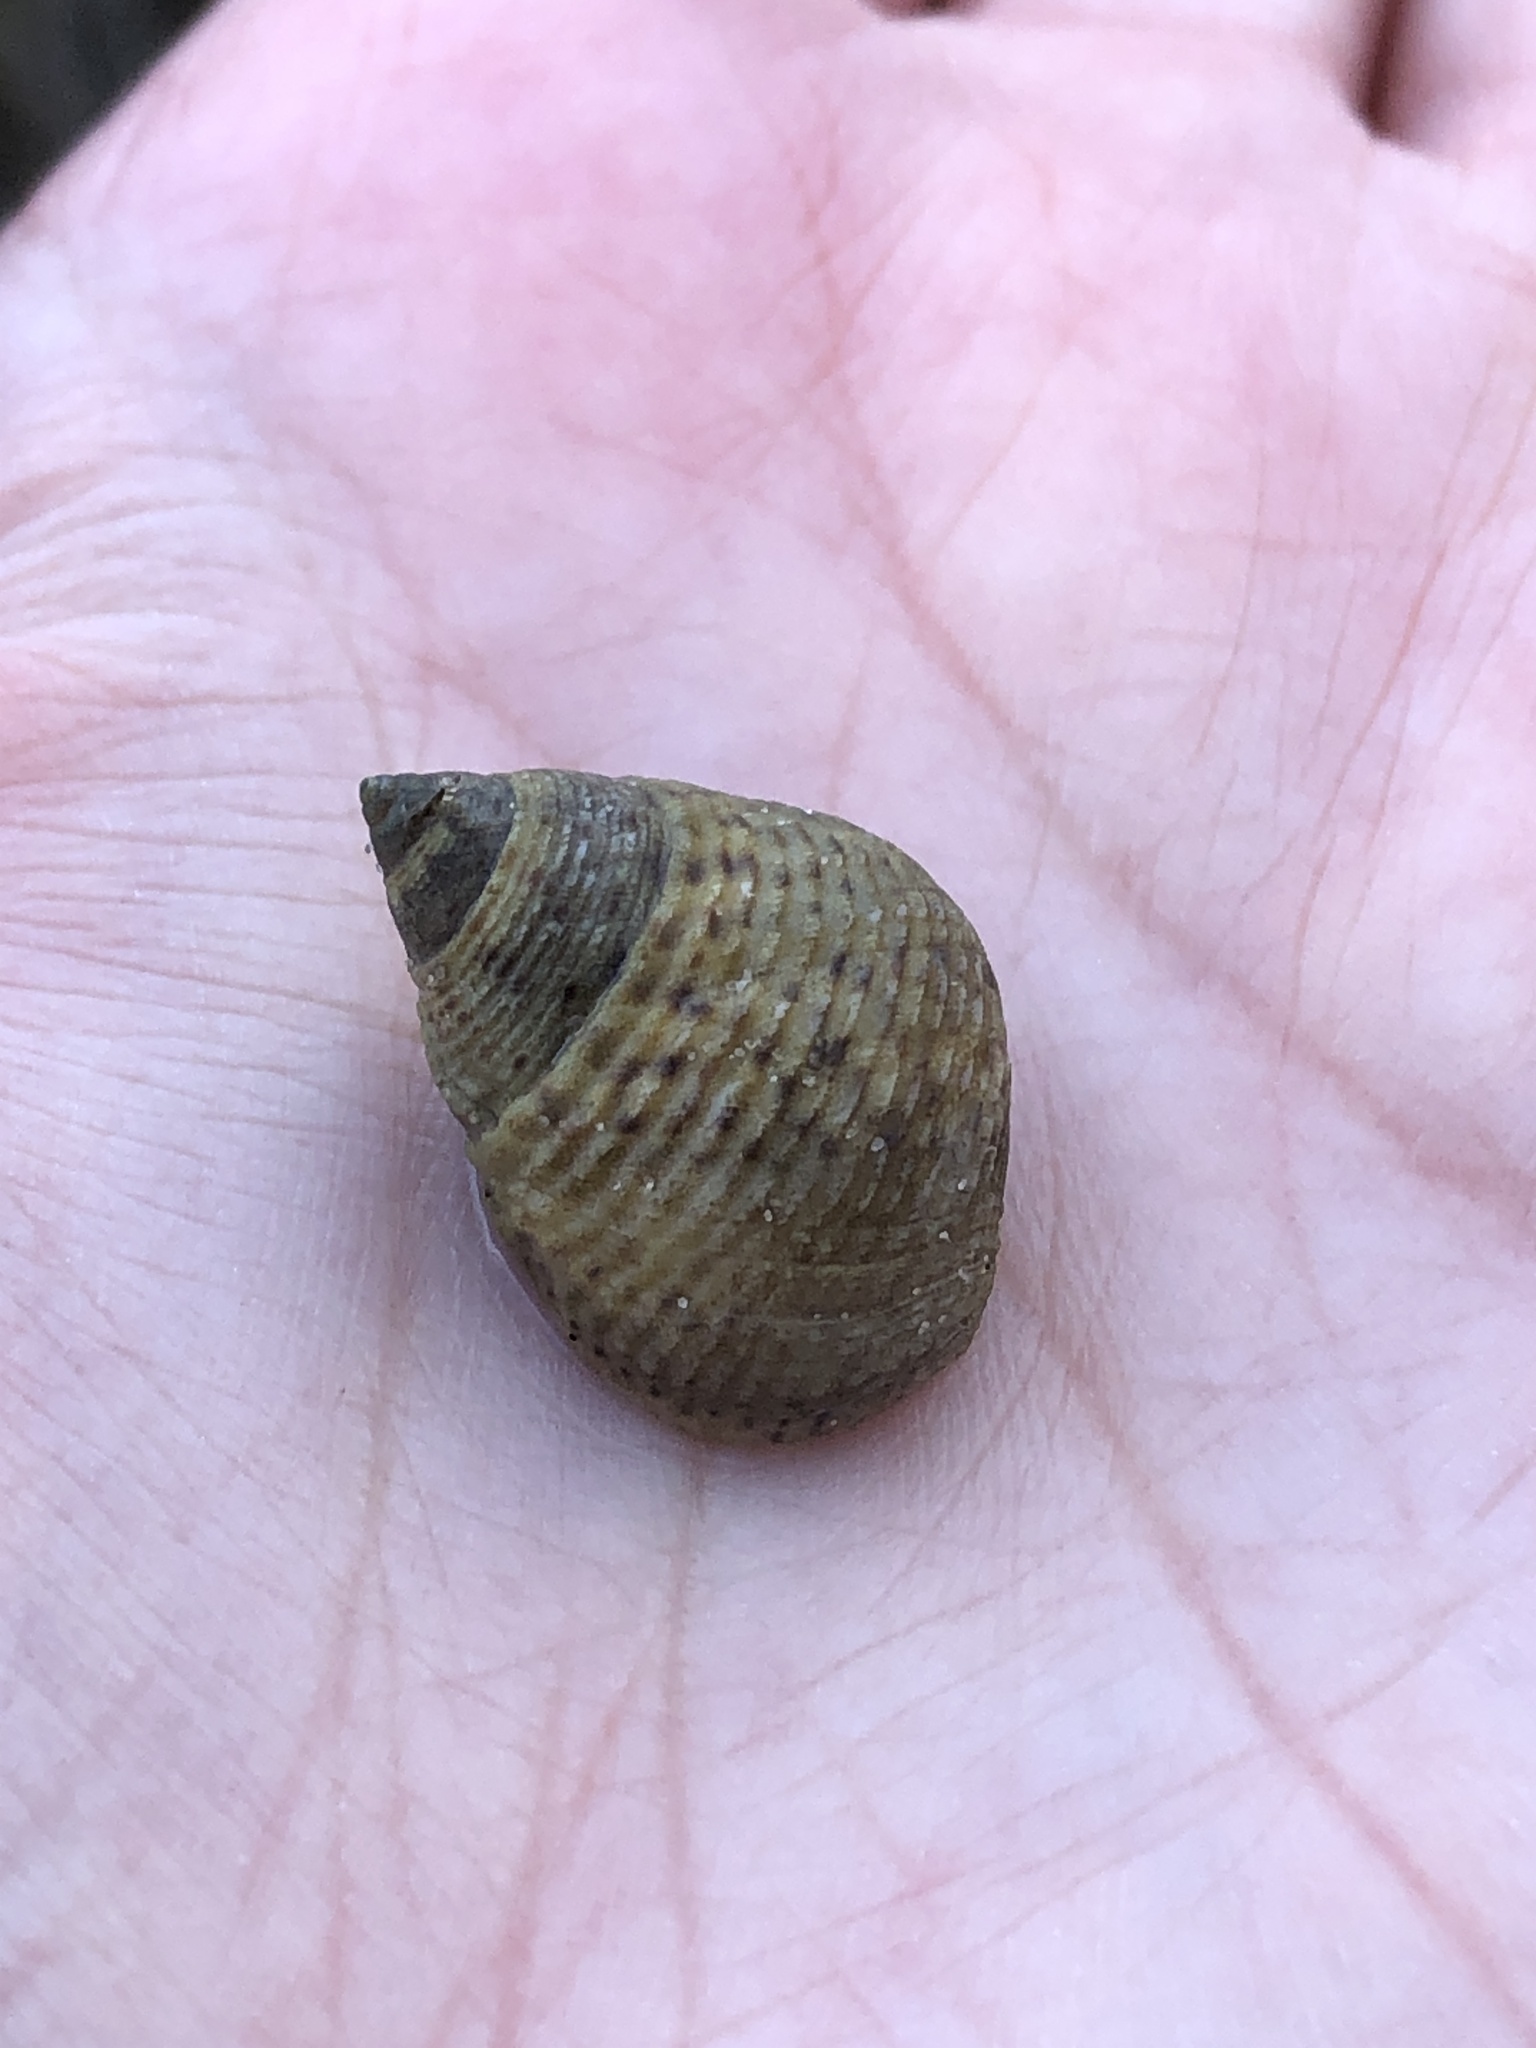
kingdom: Animalia
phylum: Mollusca
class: Gastropoda
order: Littorinimorpha
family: Littorinidae
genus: Littoraria
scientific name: Littoraria irrorata
